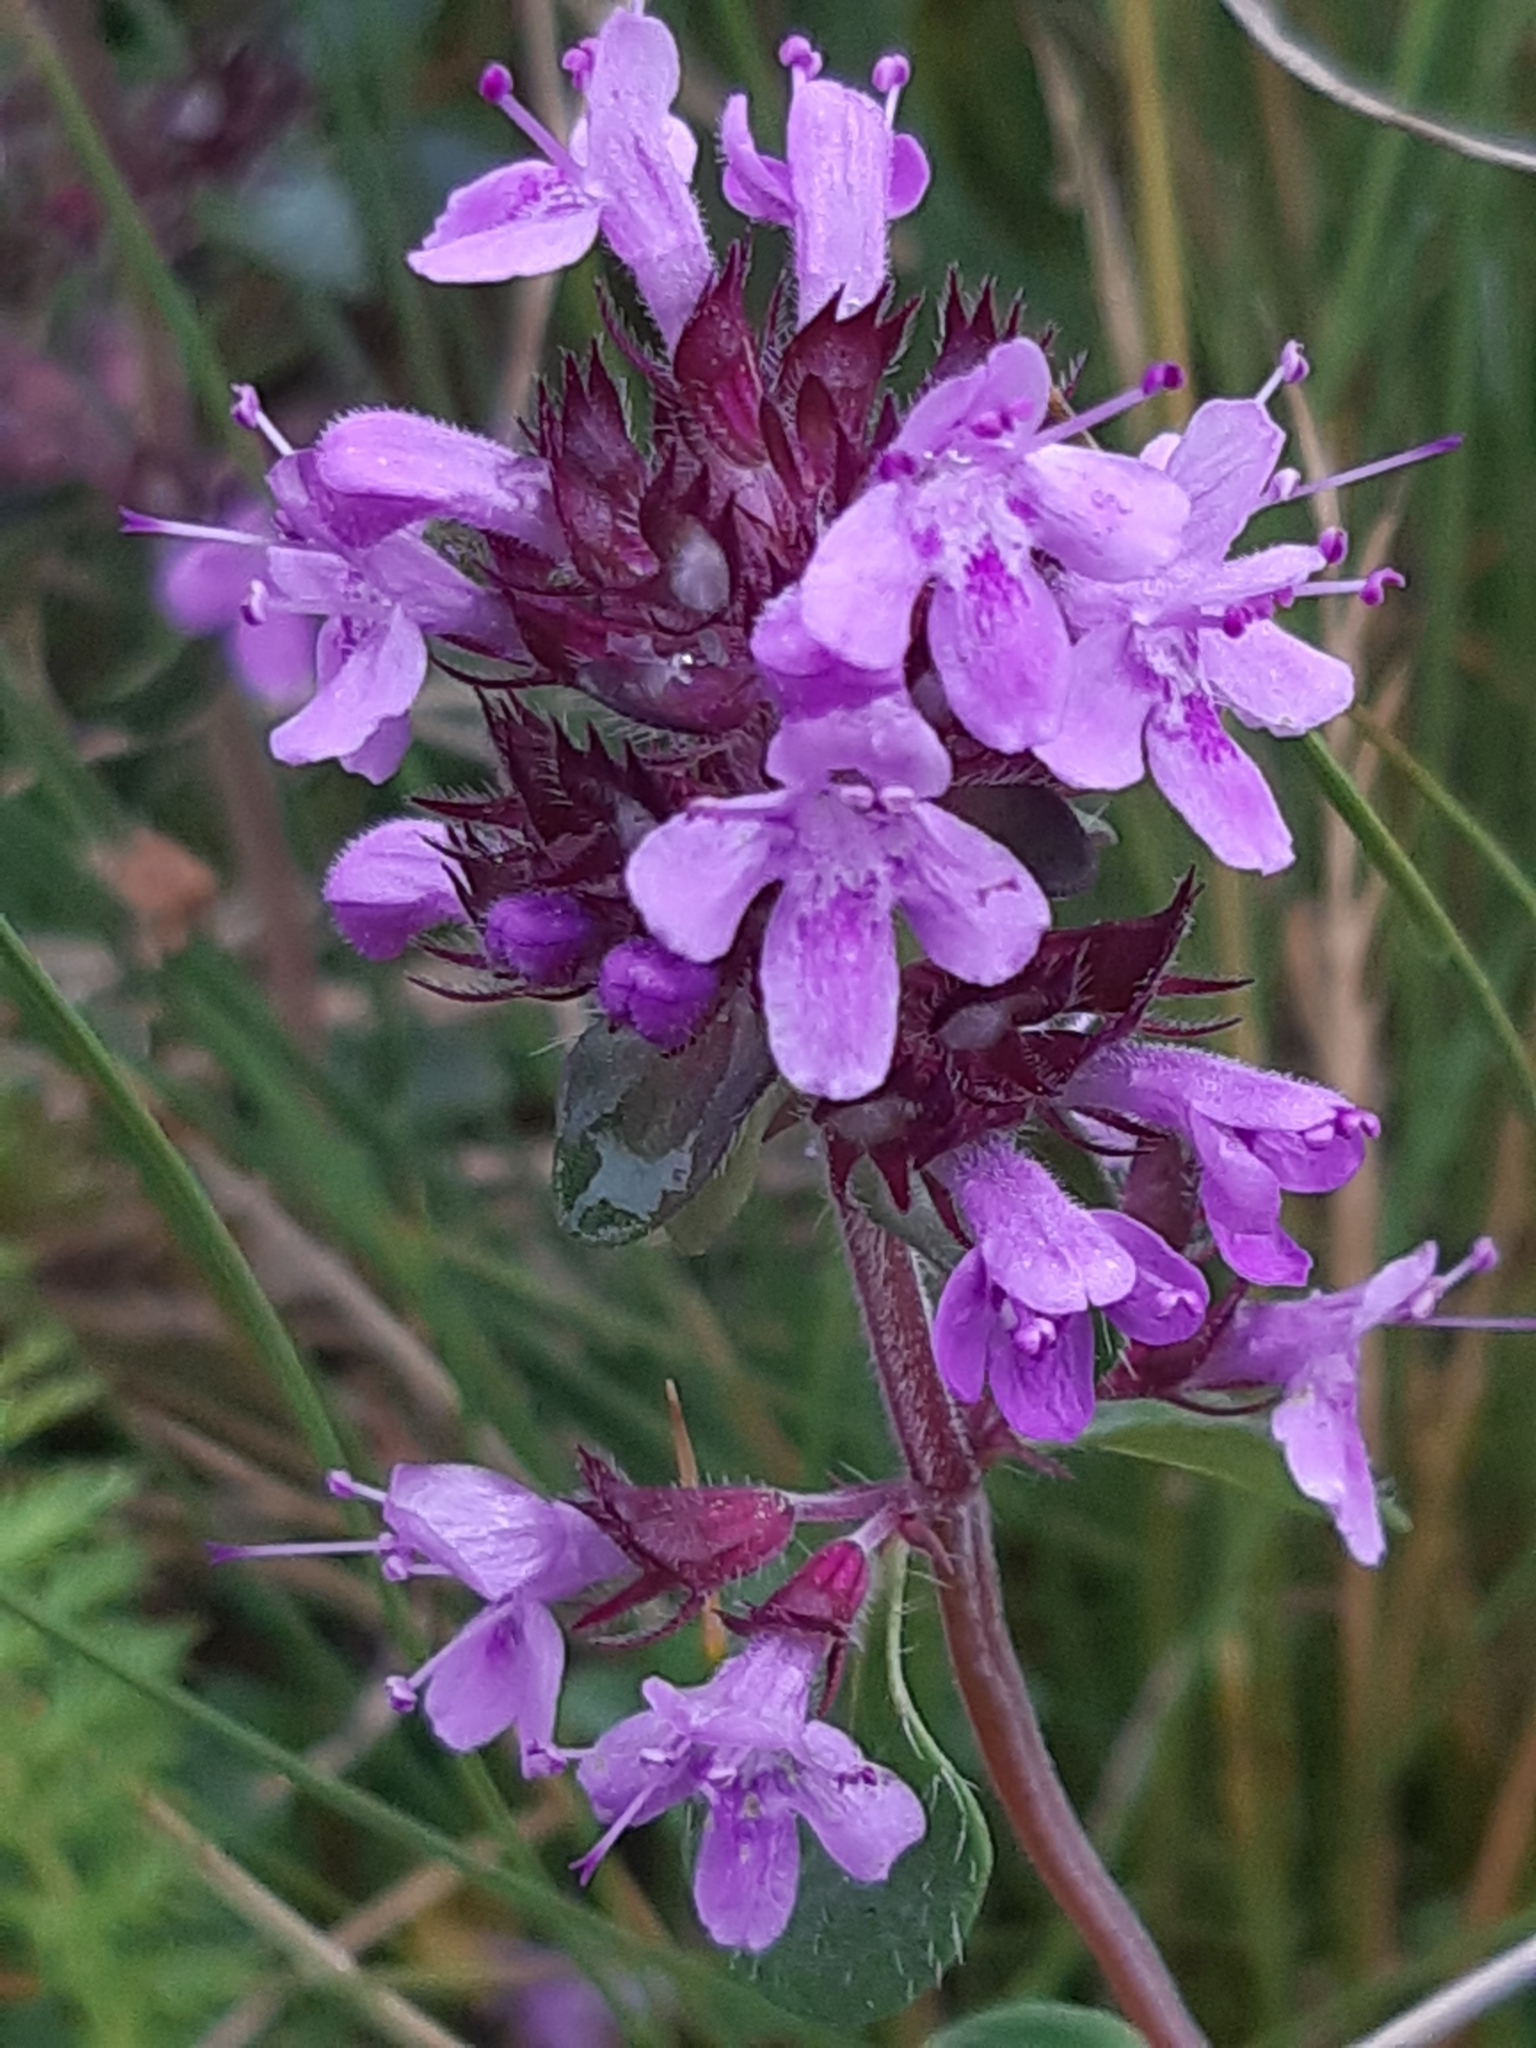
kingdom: Plantae
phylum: Tracheophyta
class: Magnoliopsida
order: Lamiales
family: Lamiaceae
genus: Thymus
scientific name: Thymus pulegioides
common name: Large thyme
